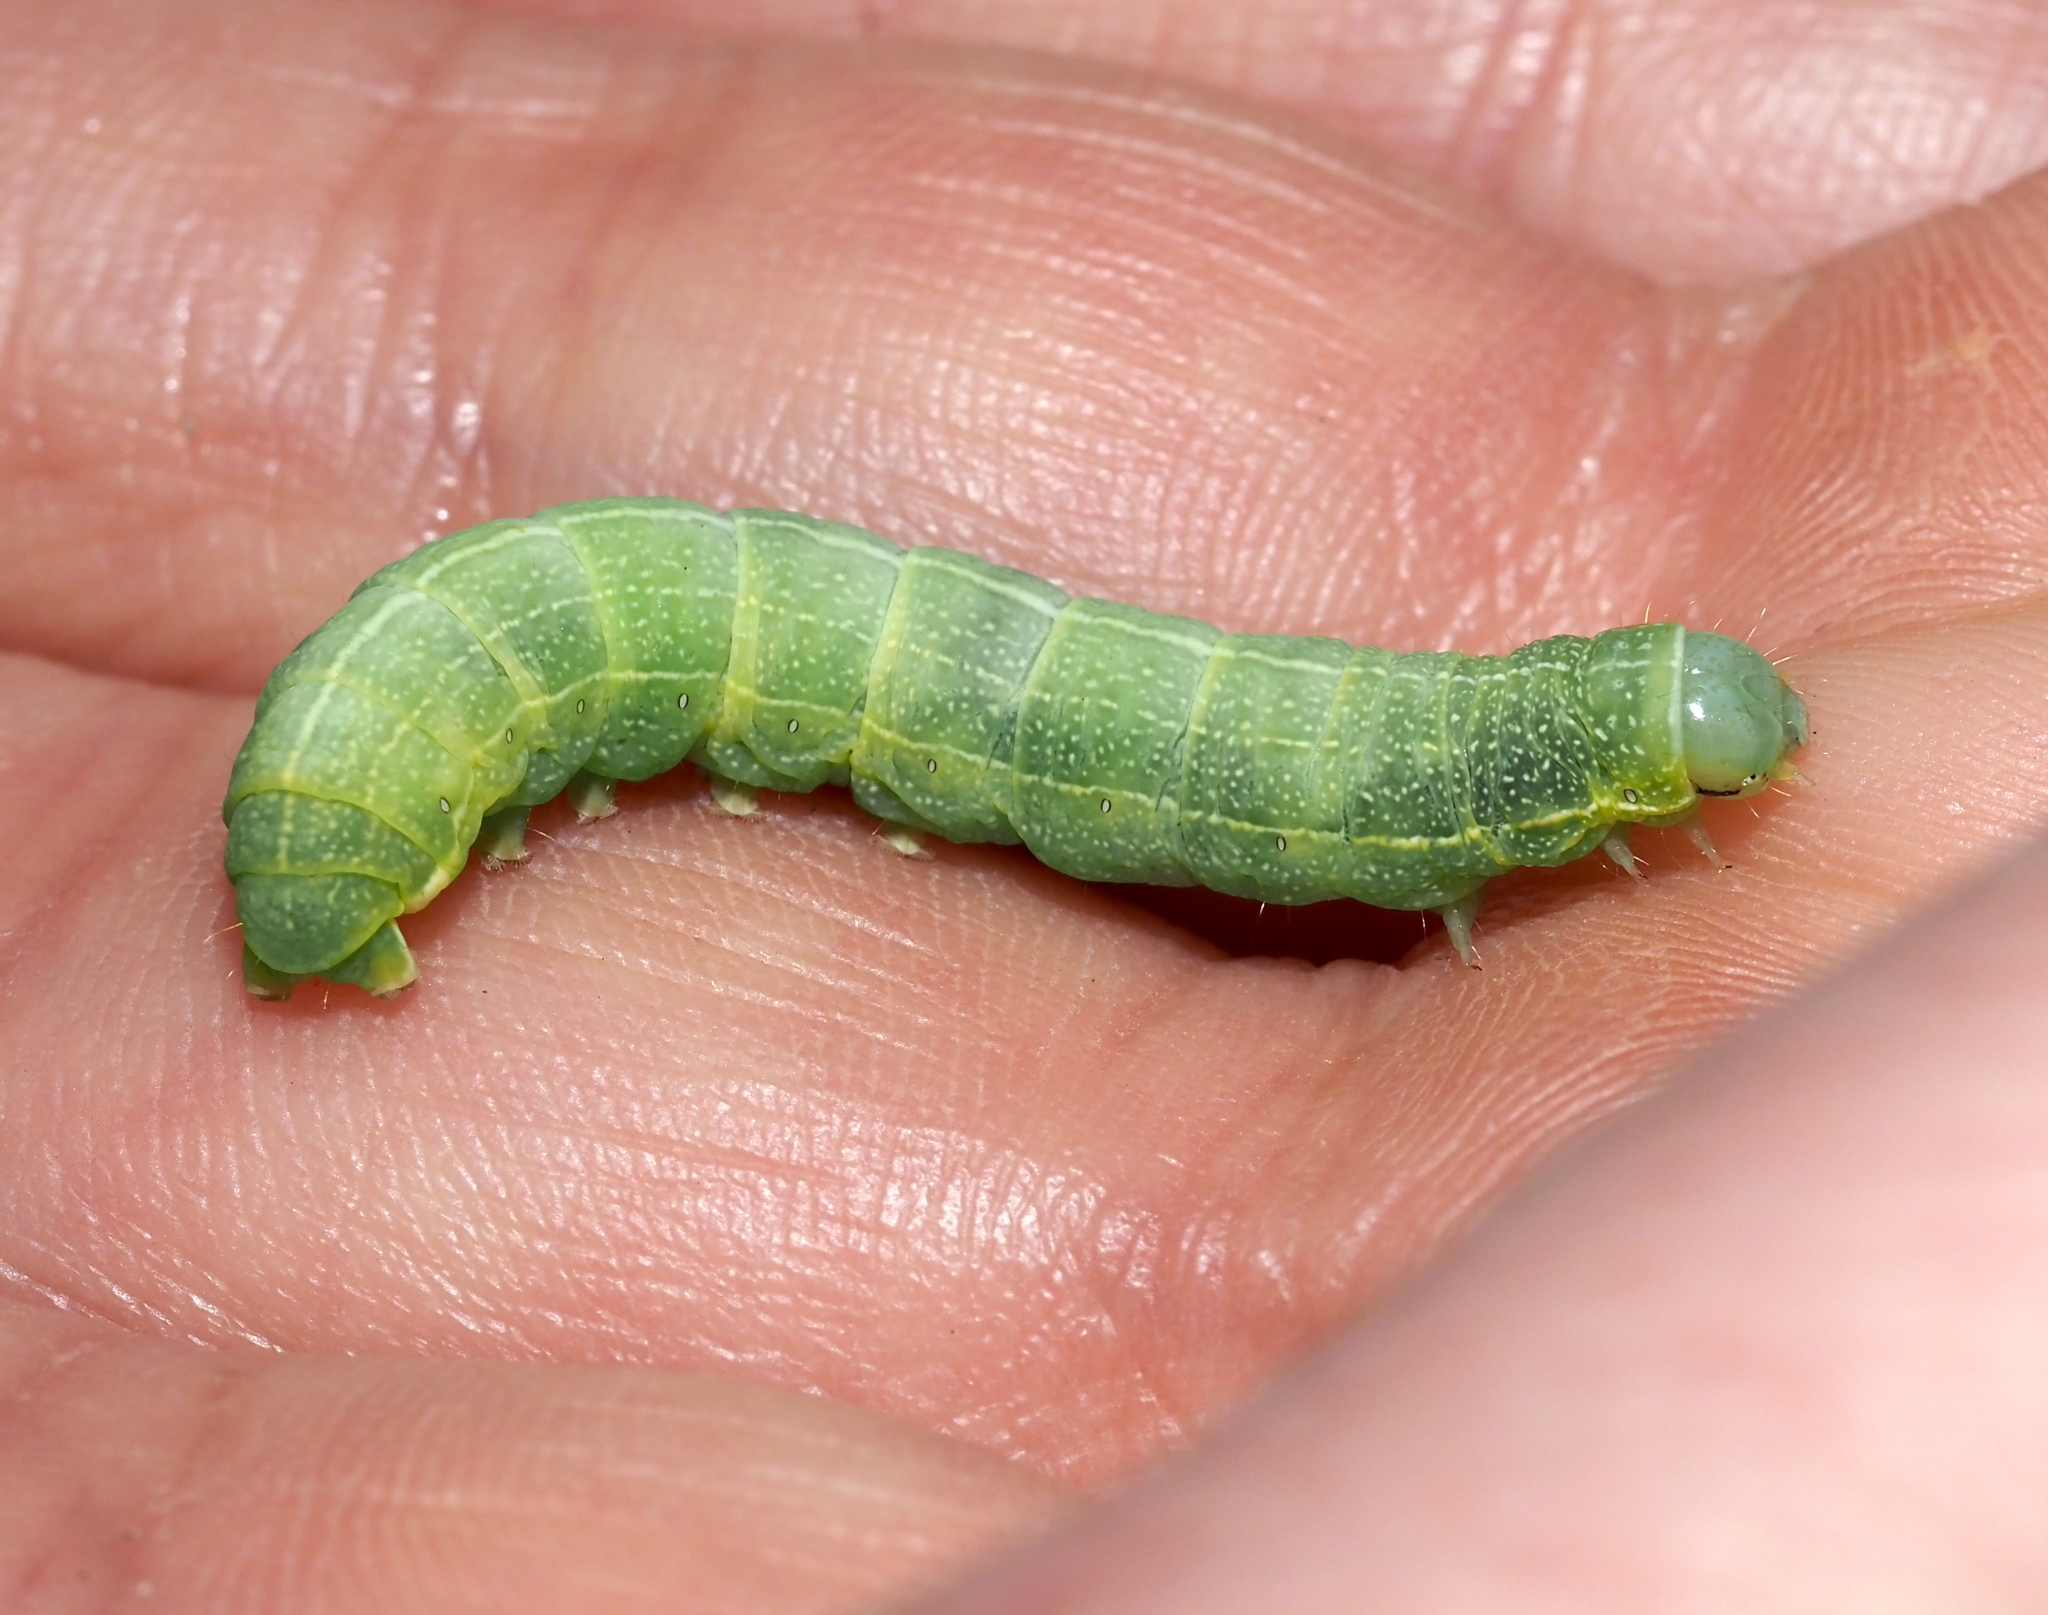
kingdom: Animalia
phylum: Arthropoda
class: Insecta
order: Lepidoptera
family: Noctuidae
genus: Amphipyra
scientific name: Amphipyra pyramidoides
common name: American copper underwing
